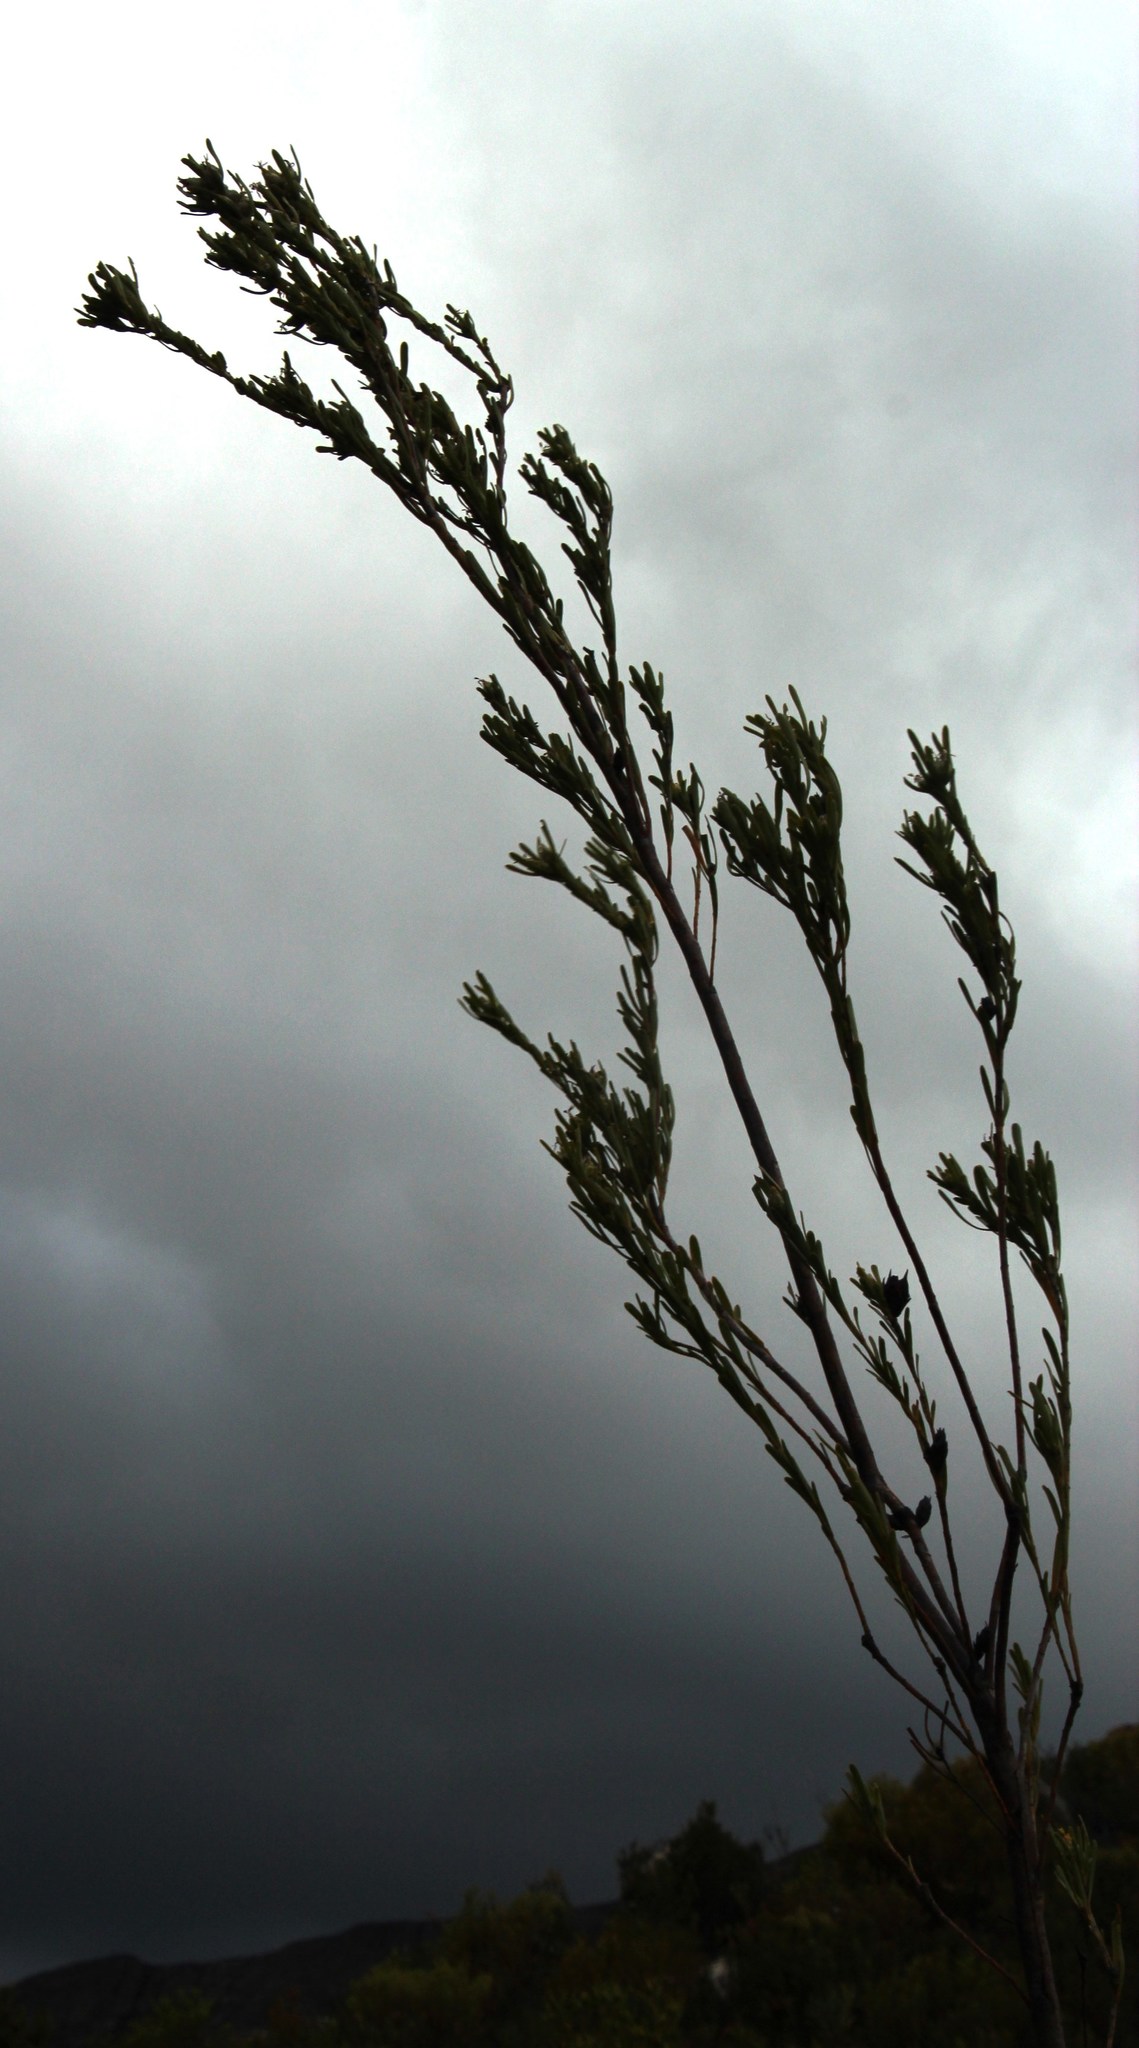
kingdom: Plantae
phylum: Tracheophyta
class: Magnoliopsida
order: Proteales
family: Proteaceae
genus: Leucadendron
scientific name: Leucadendron ericifolium
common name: Erica-leaved conebush
